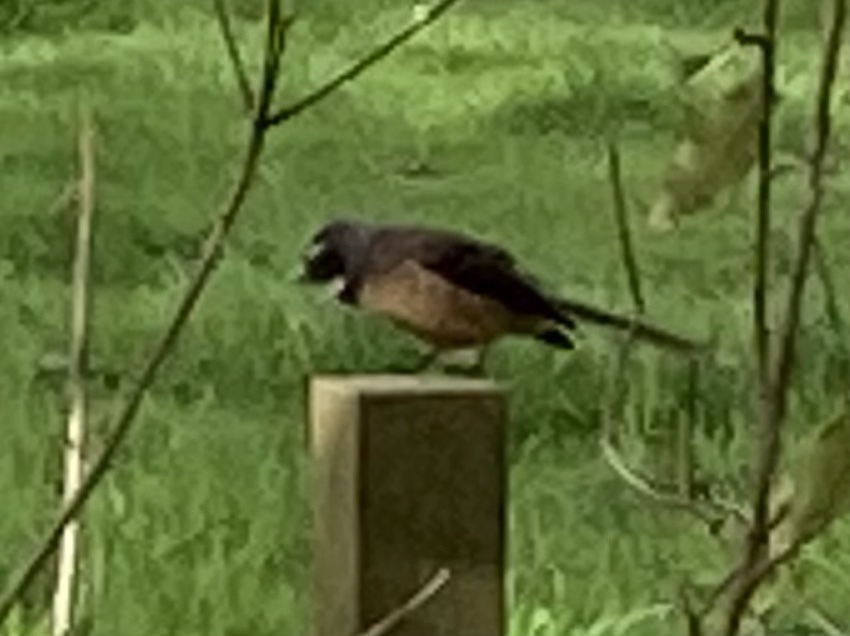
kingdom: Animalia
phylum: Chordata
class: Aves
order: Passeriformes
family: Rhipiduridae
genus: Rhipidura
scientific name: Rhipidura fuliginosa
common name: New zealand fantail
